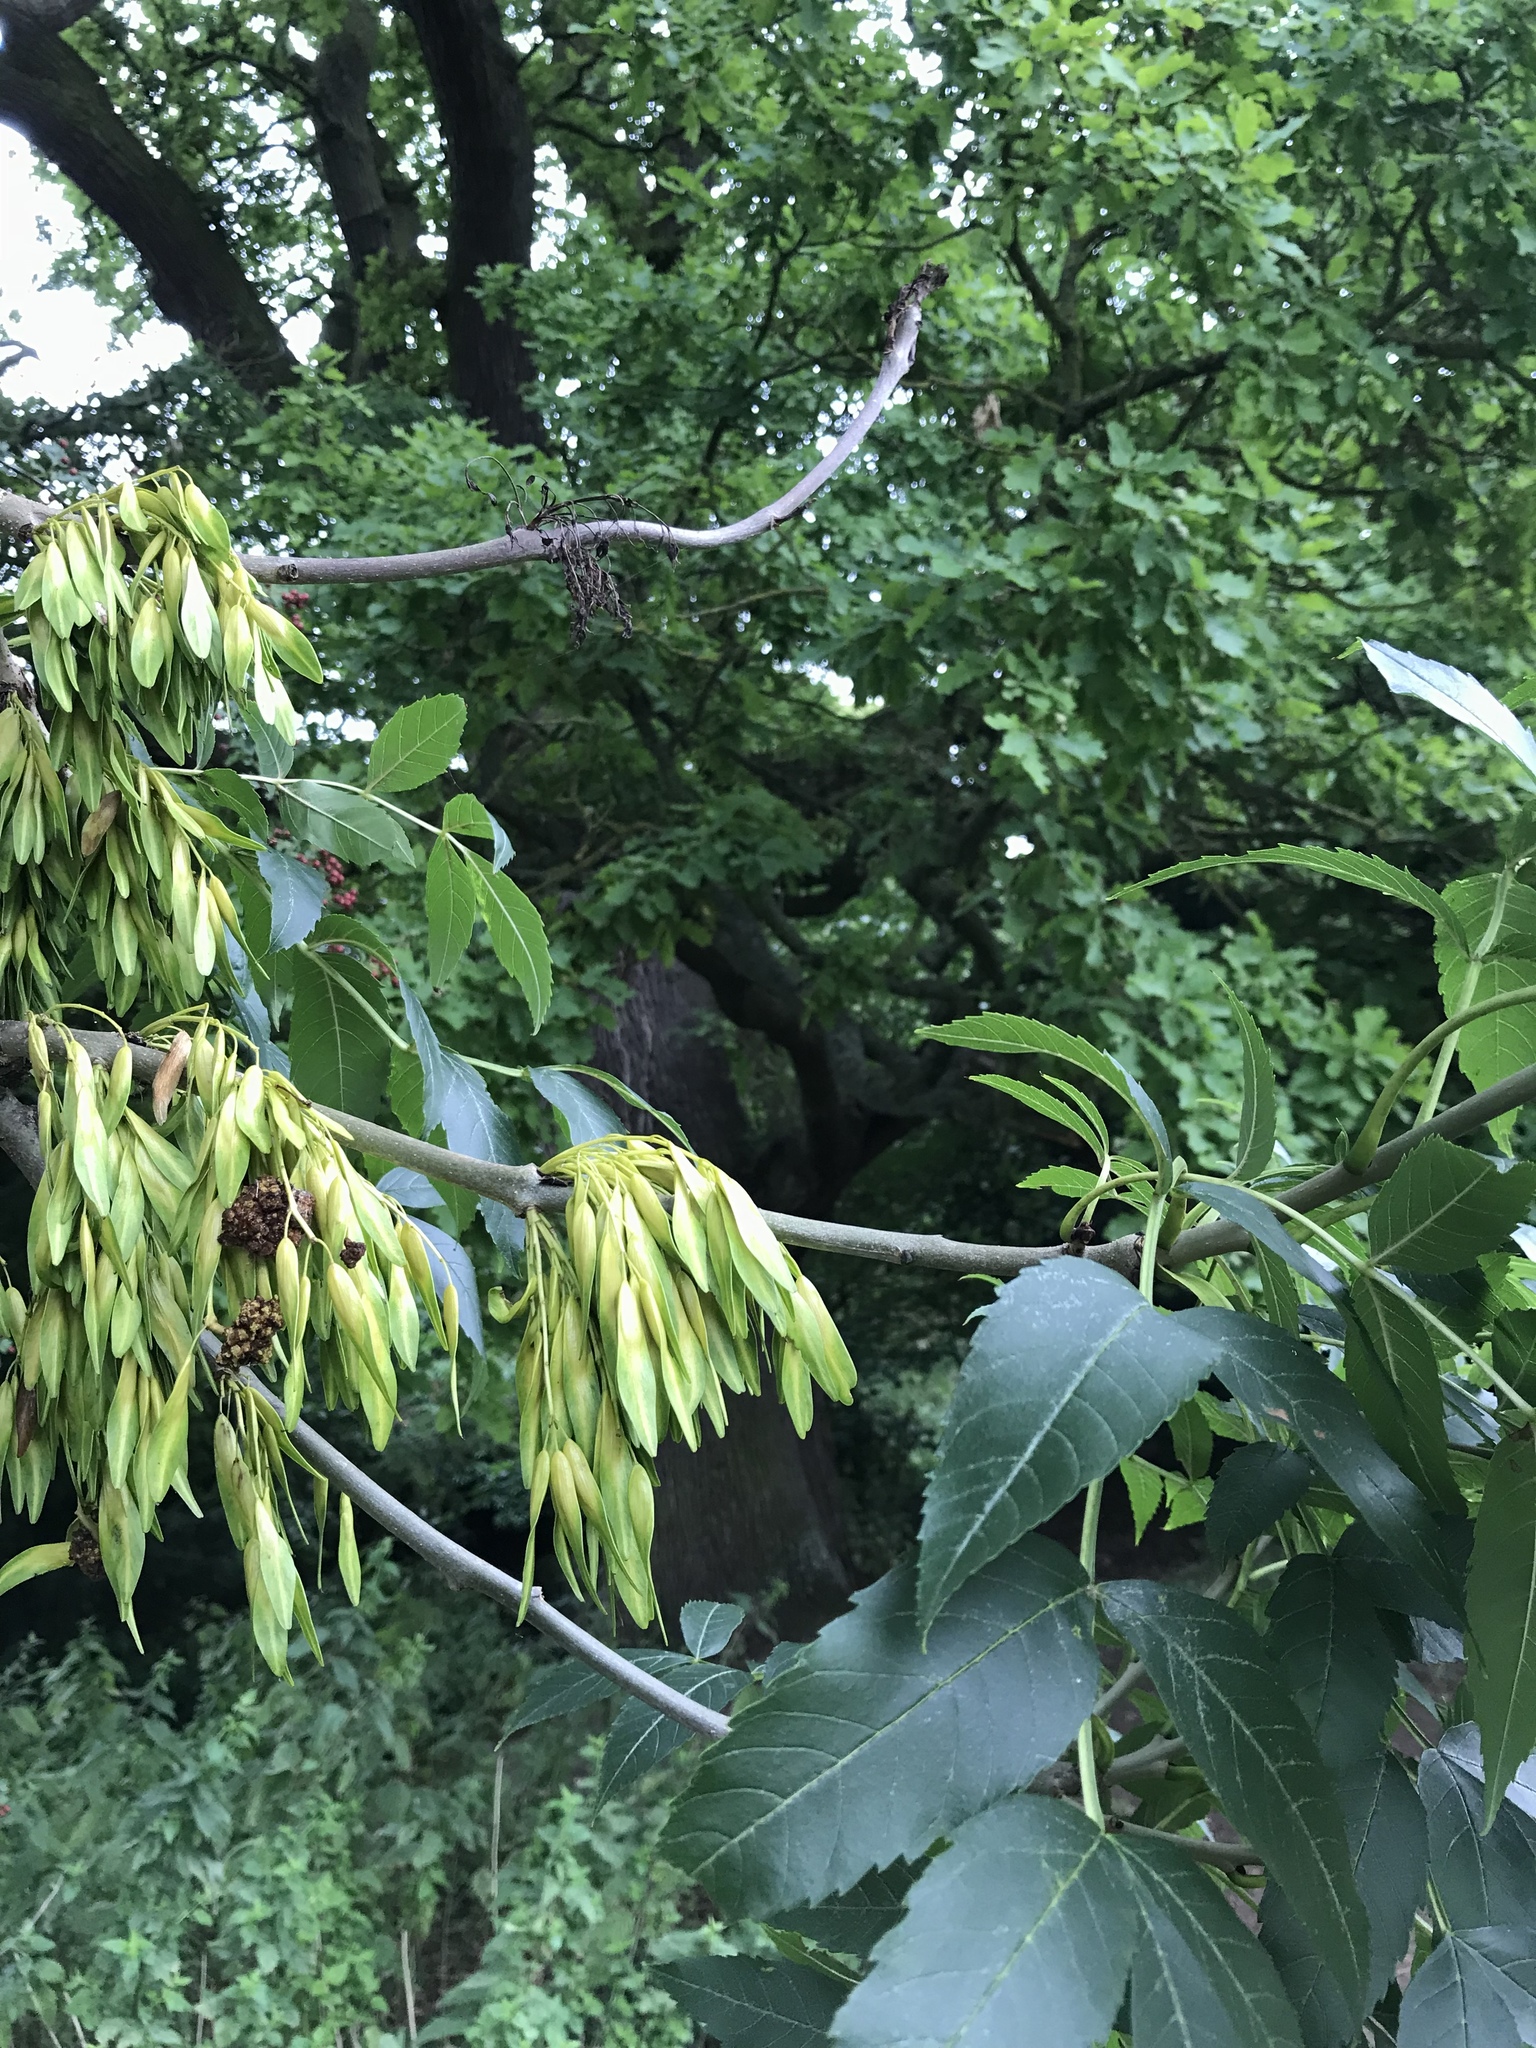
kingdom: Plantae
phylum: Tracheophyta
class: Magnoliopsida
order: Lamiales
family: Oleaceae
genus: Fraxinus
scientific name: Fraxinus excelsior
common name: European ash
